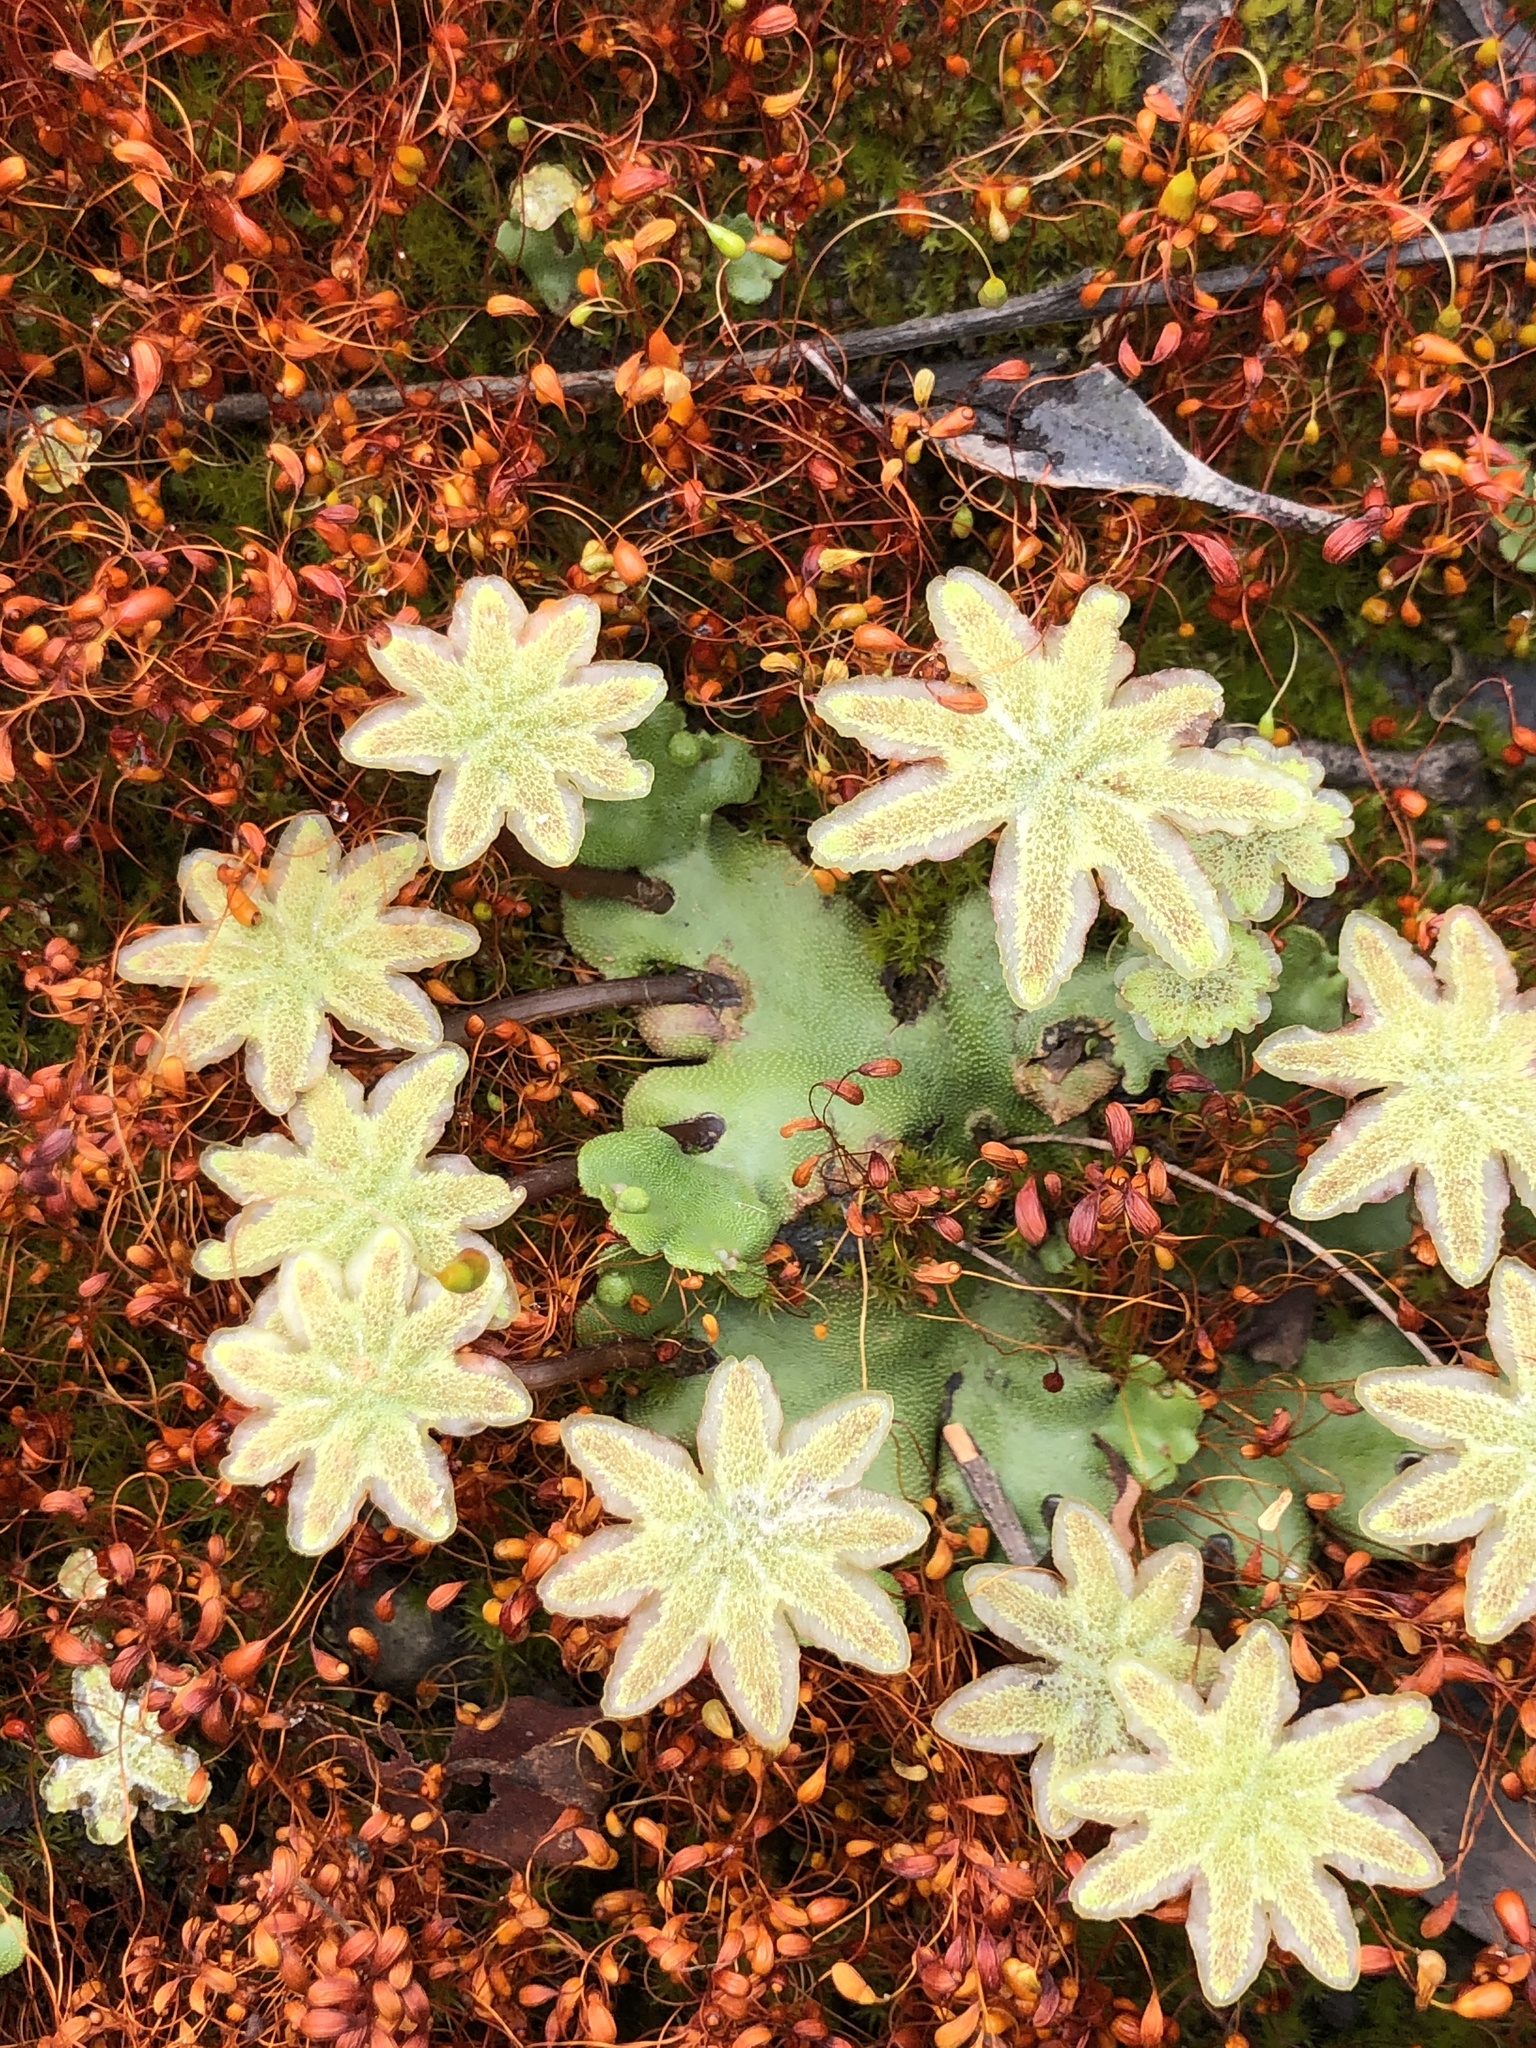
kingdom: Plantae
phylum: Marchantiophyta
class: Marchantiopsida
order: Marchantiales
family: Marchantiaceae
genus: Marchantia
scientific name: Marchantia berteroana
